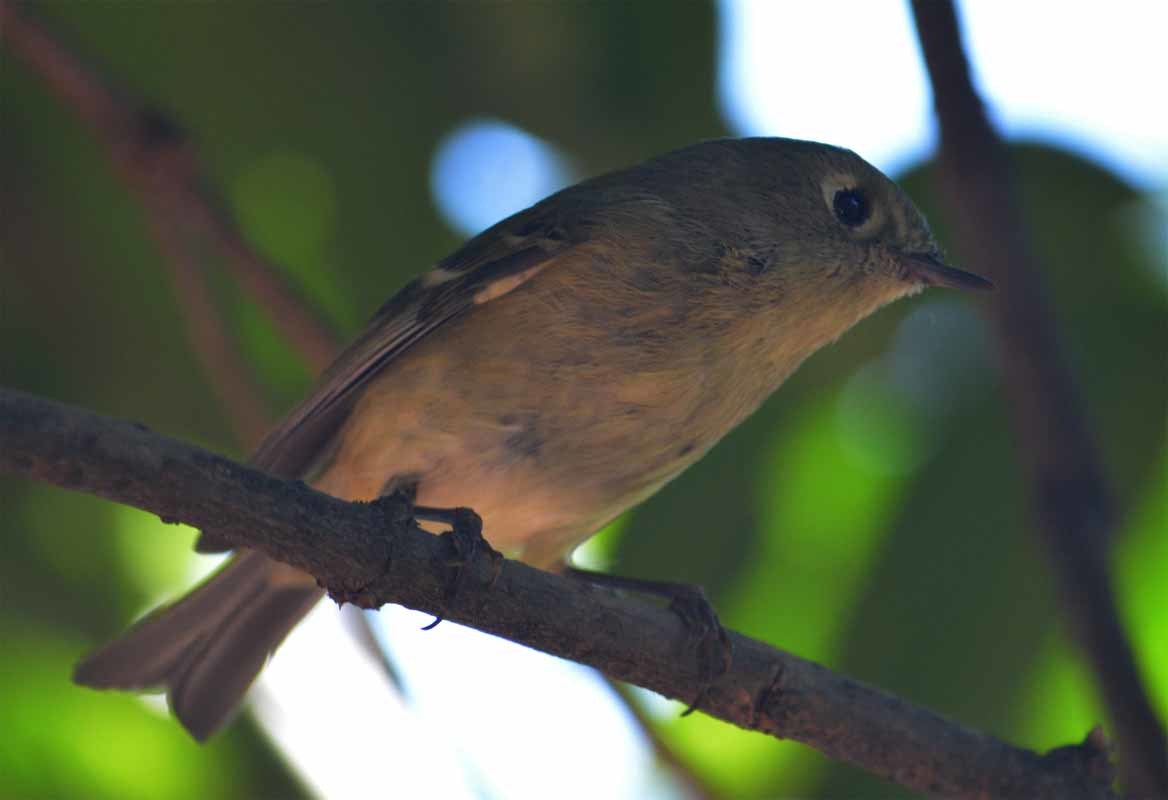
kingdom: Animalia
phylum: Chordata
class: Aves
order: Passeriformes
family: Regulidae
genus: Regulus
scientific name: Regulus calendula
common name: Ruby-crowned kinglet
